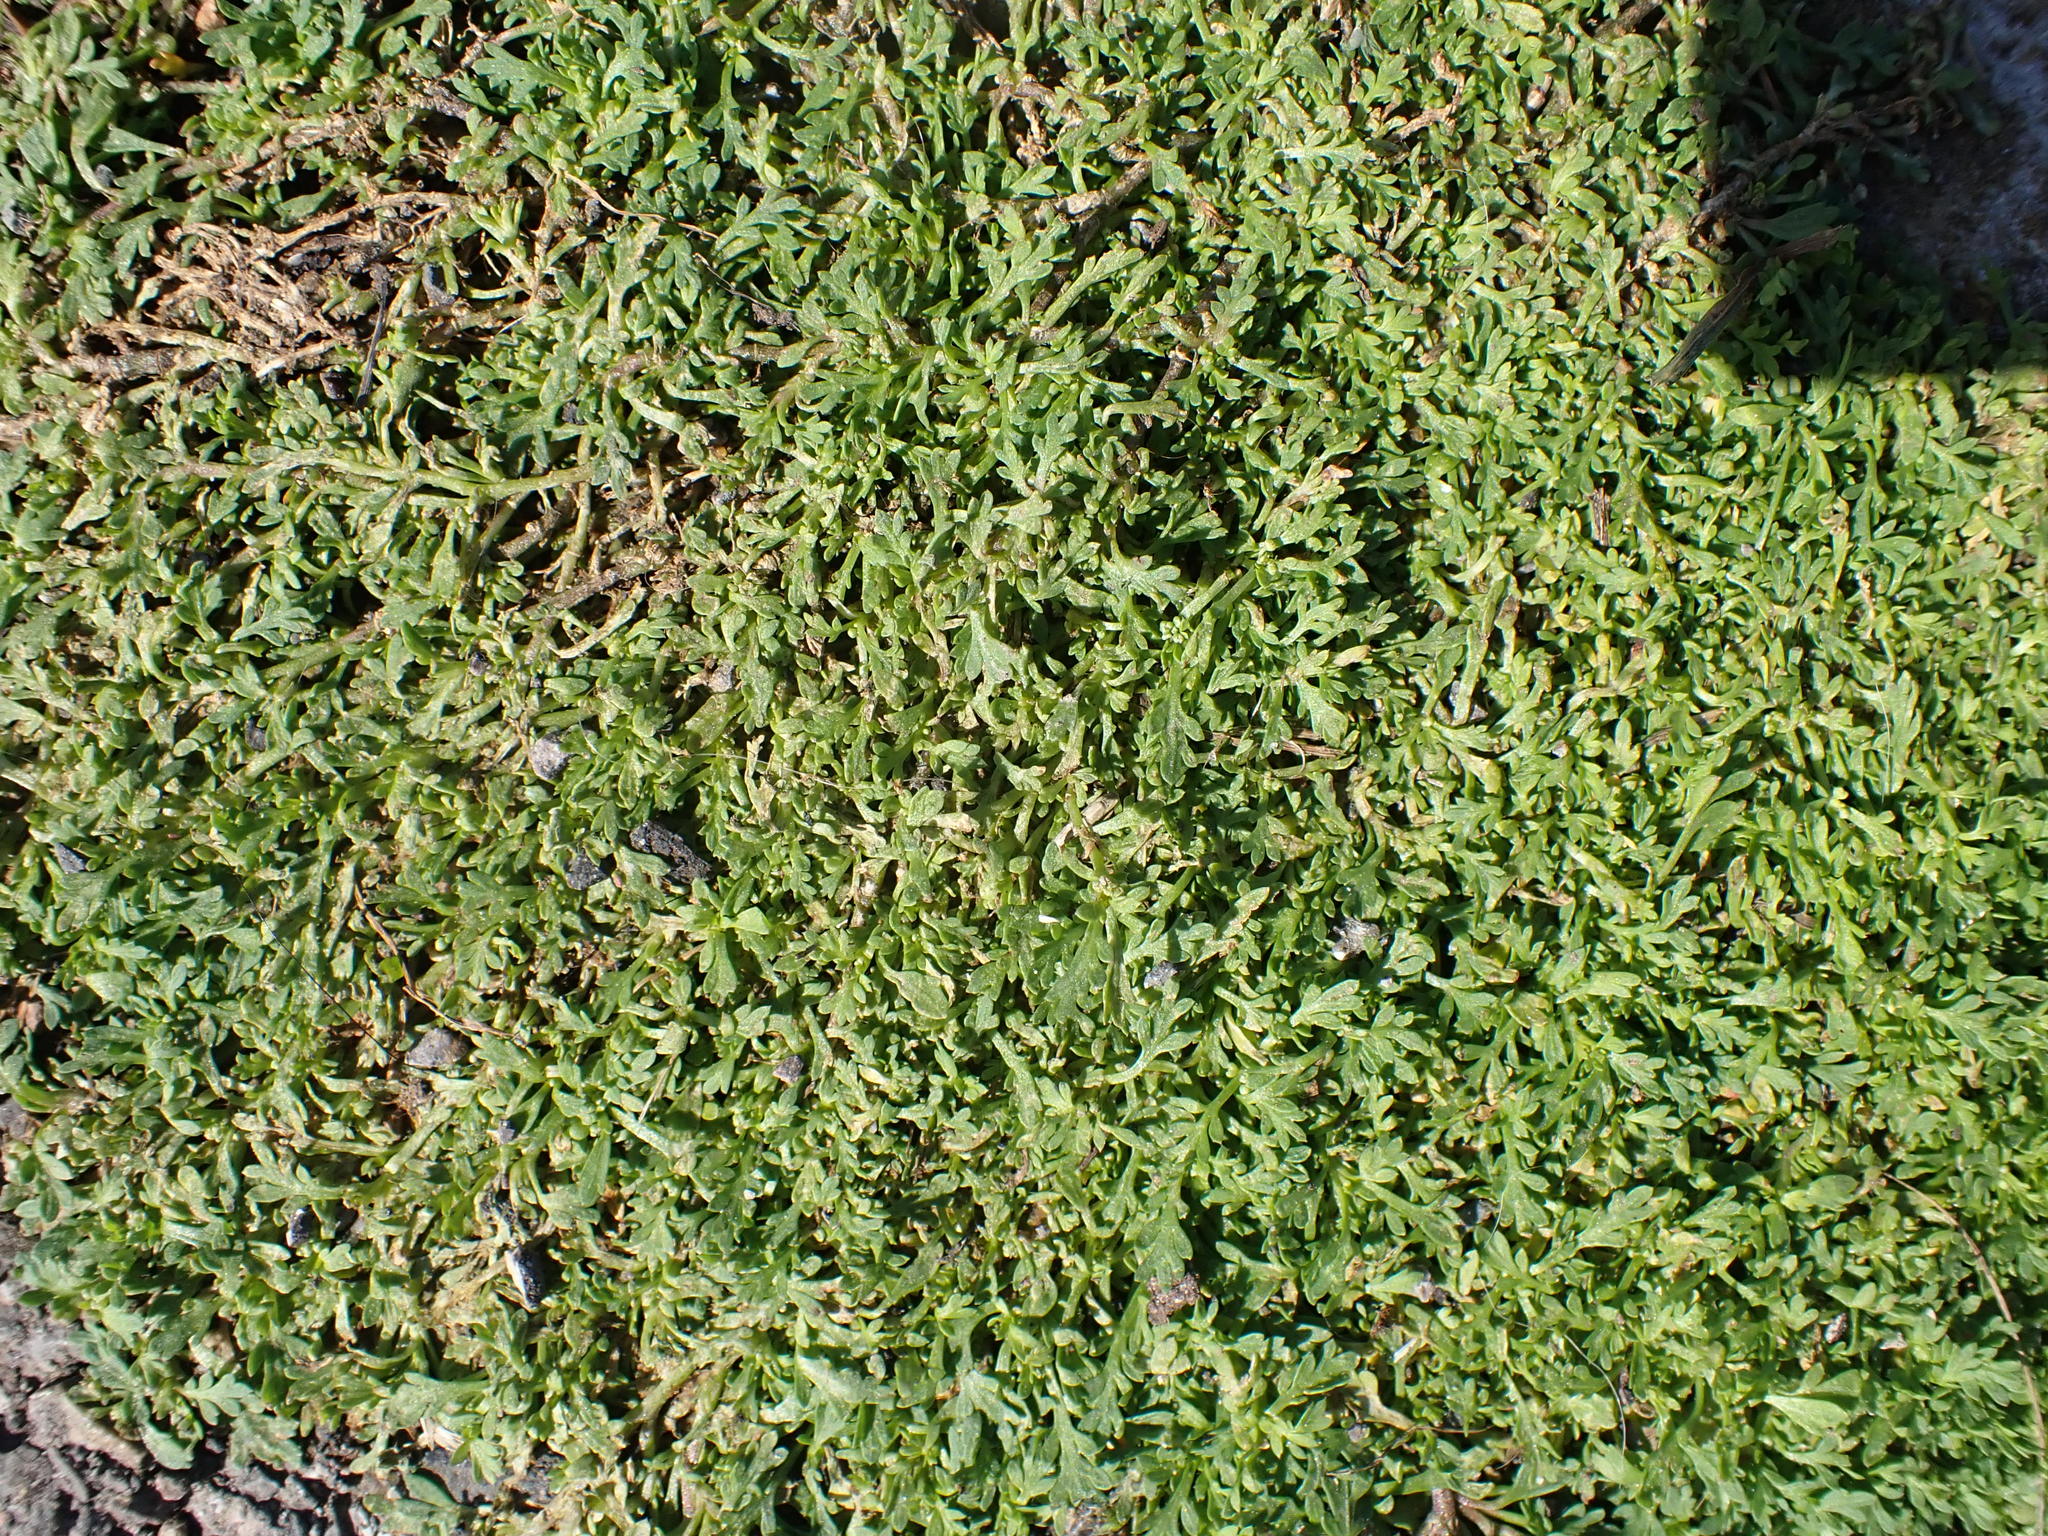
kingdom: Plantae
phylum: Tracheophyta
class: Magnoliopsida
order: Brassicales
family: Brassicaceae
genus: Lepidium
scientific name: Lepidium didymum
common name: Lesser swinecress
